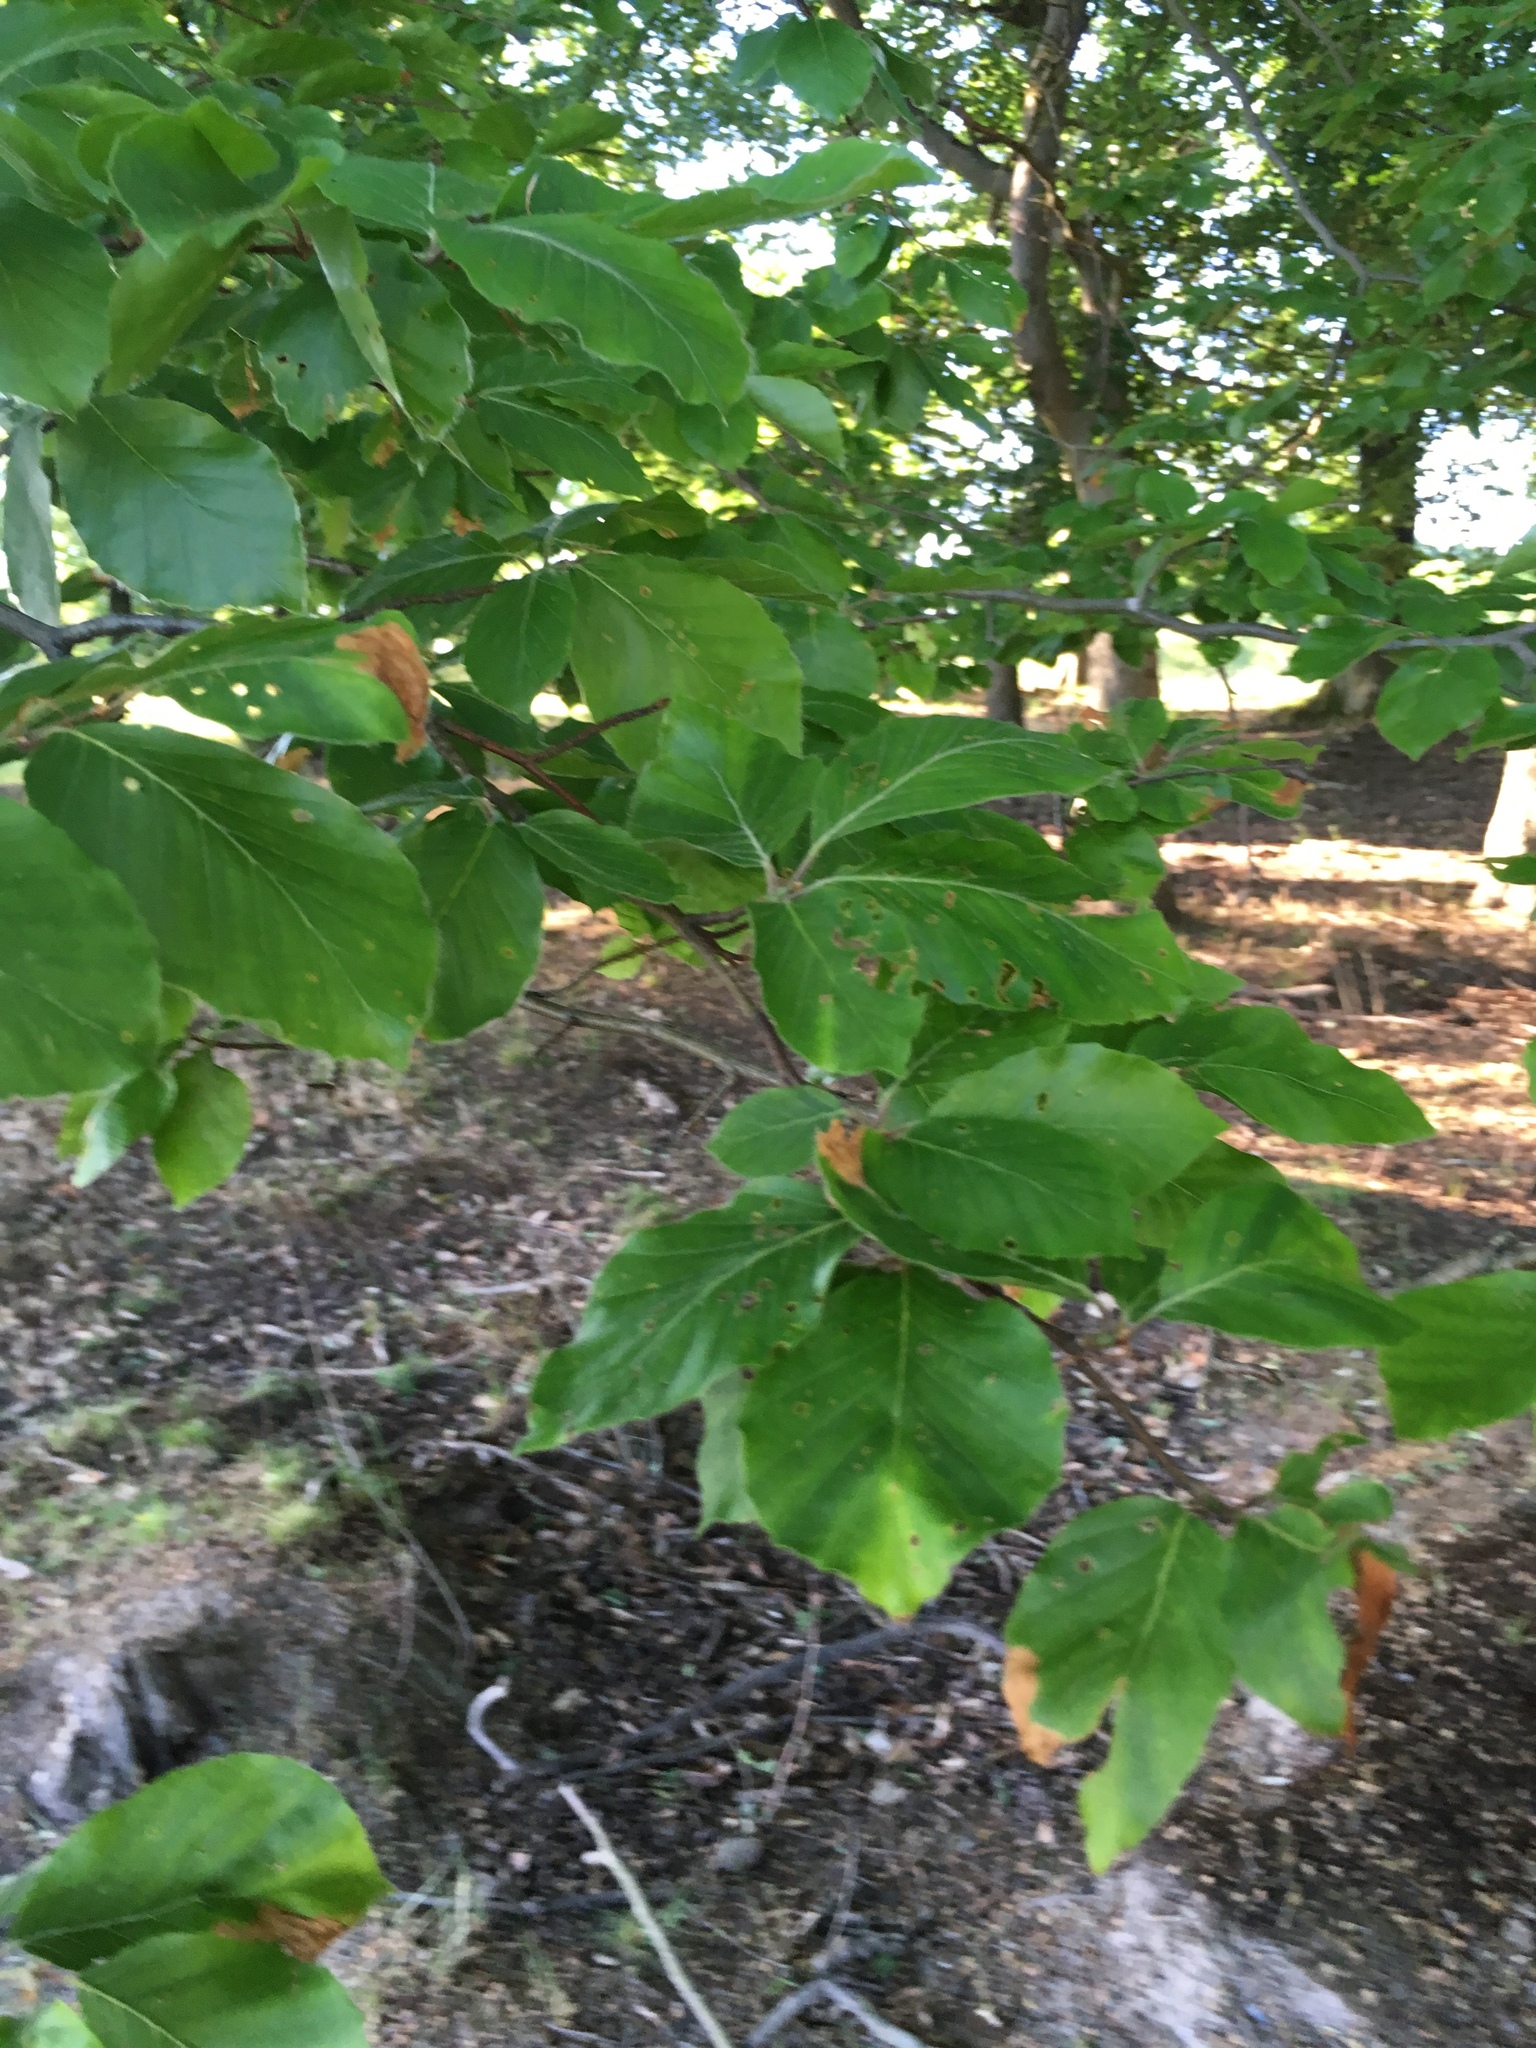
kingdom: Plantae
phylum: Tracheophyta
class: Magnoliopsida
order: Fagales
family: Fagaceae
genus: Fagus
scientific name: Fagus sylvatica
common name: Beech
